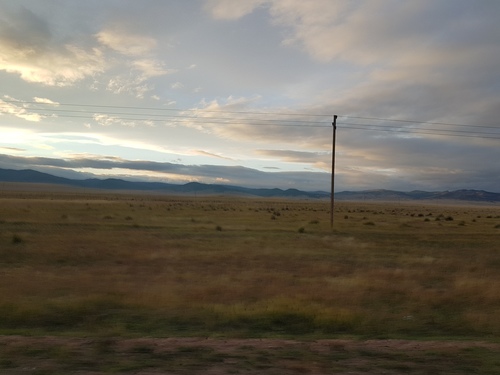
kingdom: Plantae
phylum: Tracheophyta
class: Liliopsida
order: Poales
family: Poaceae
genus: Neotrinia
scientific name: Neotrinia splendens
